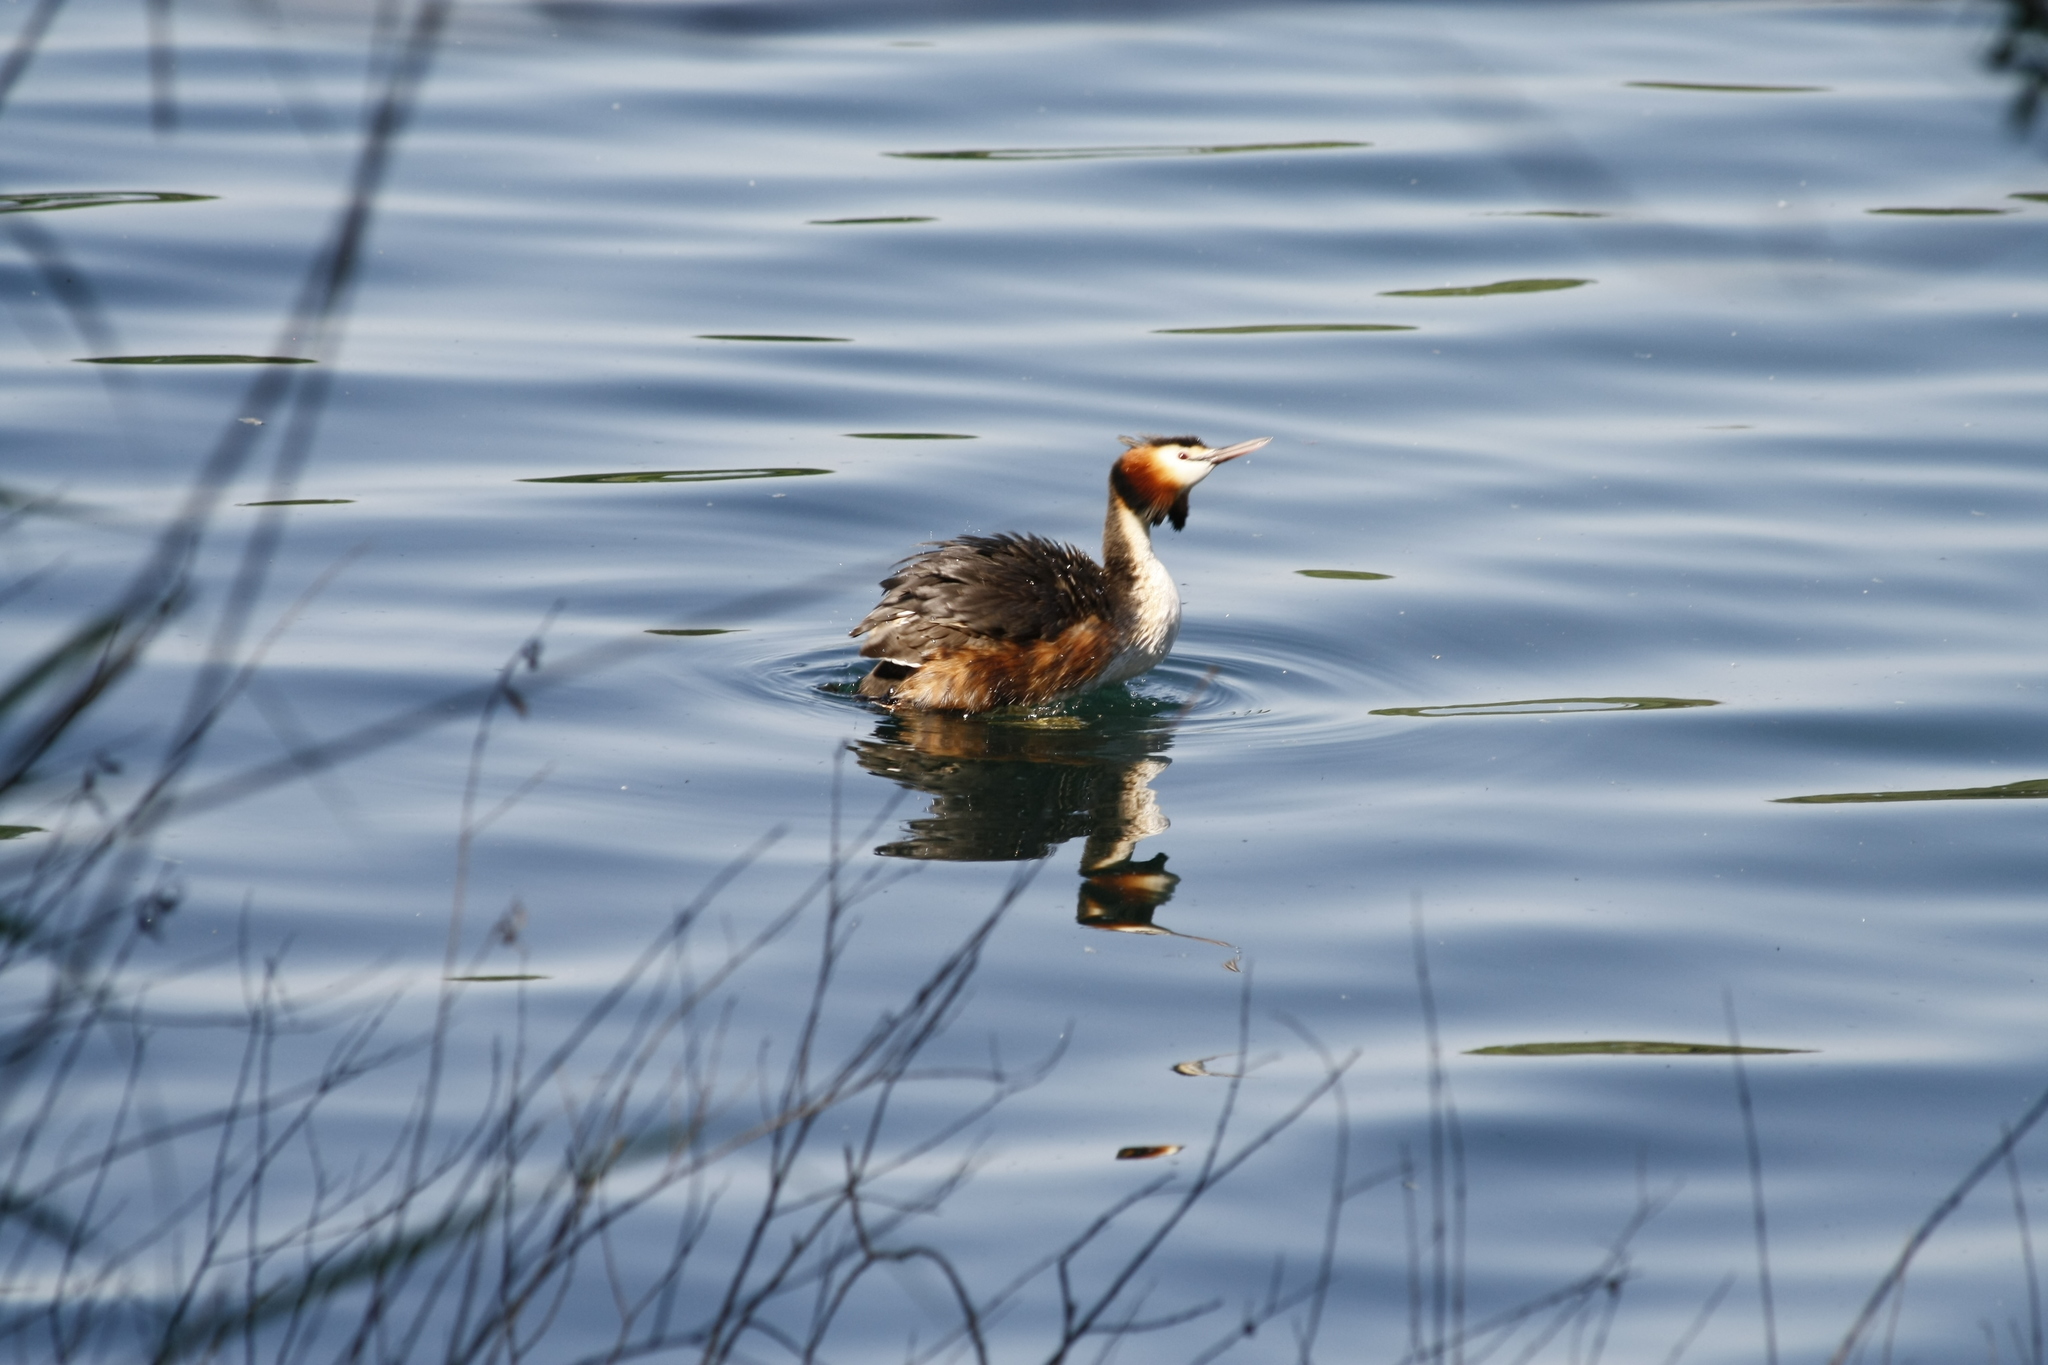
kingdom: Animalia
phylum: Chordata
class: Aves
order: Podicipediformes
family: Podicipedidae
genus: Podiceps
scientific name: Podiceps cristatus
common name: Great crested grebe
